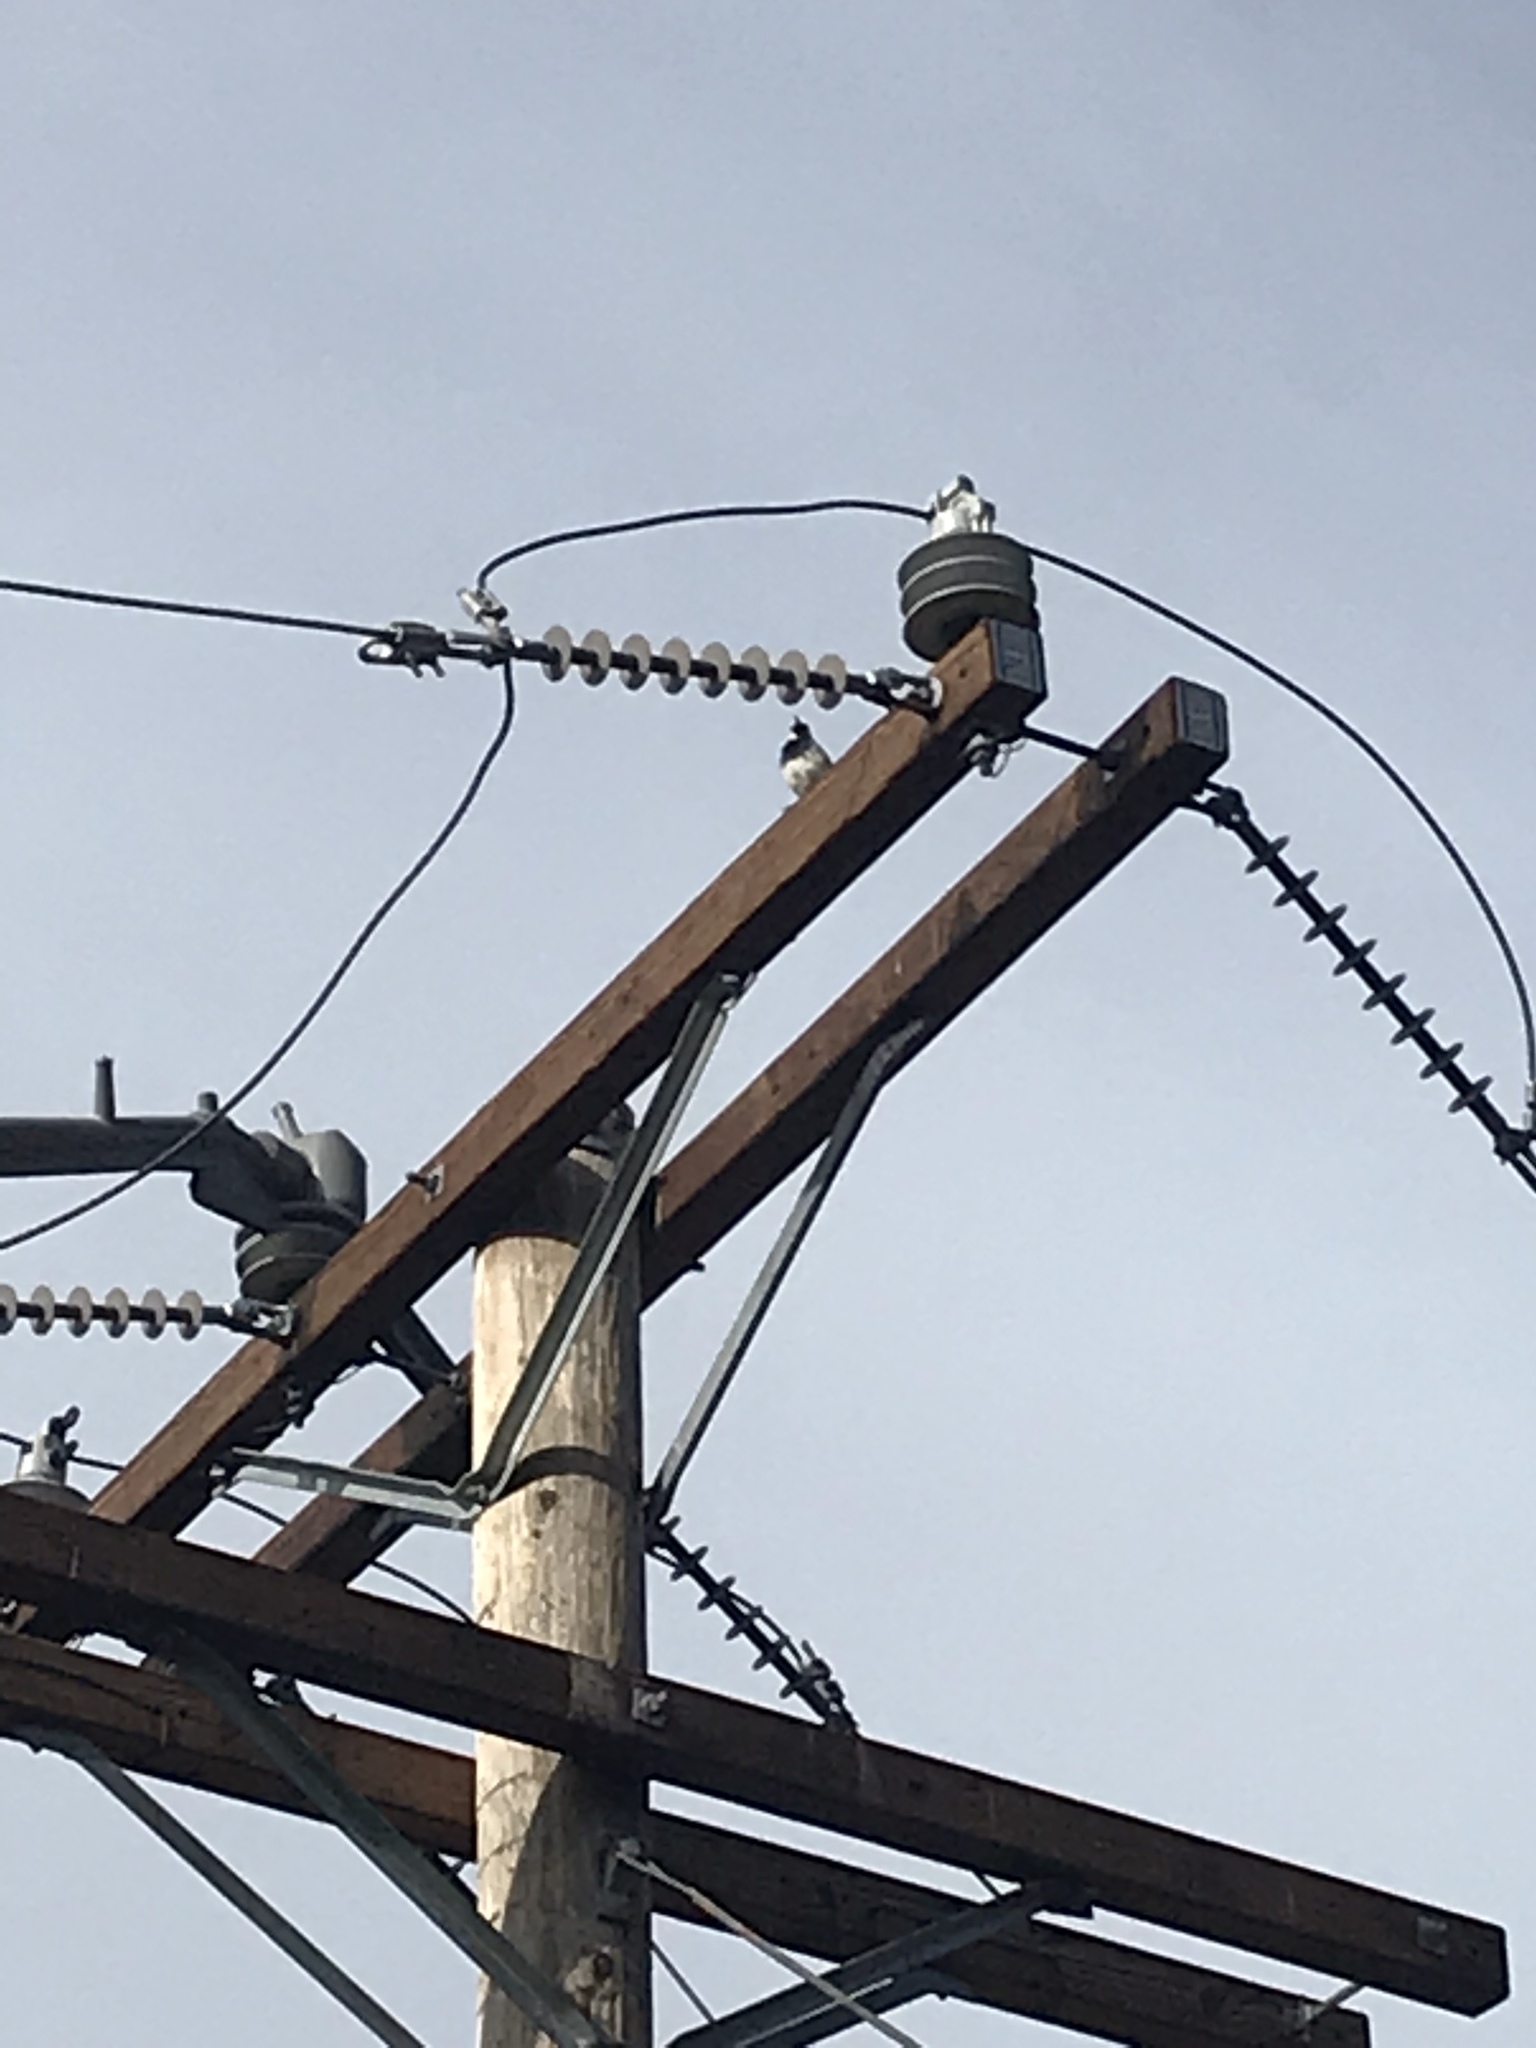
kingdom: Animalia
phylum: Chordata
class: Aves
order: Piciformes
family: Picidae
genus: Melanerpes
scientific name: Melanerpes formicivorus
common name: Acorn woodpecker
